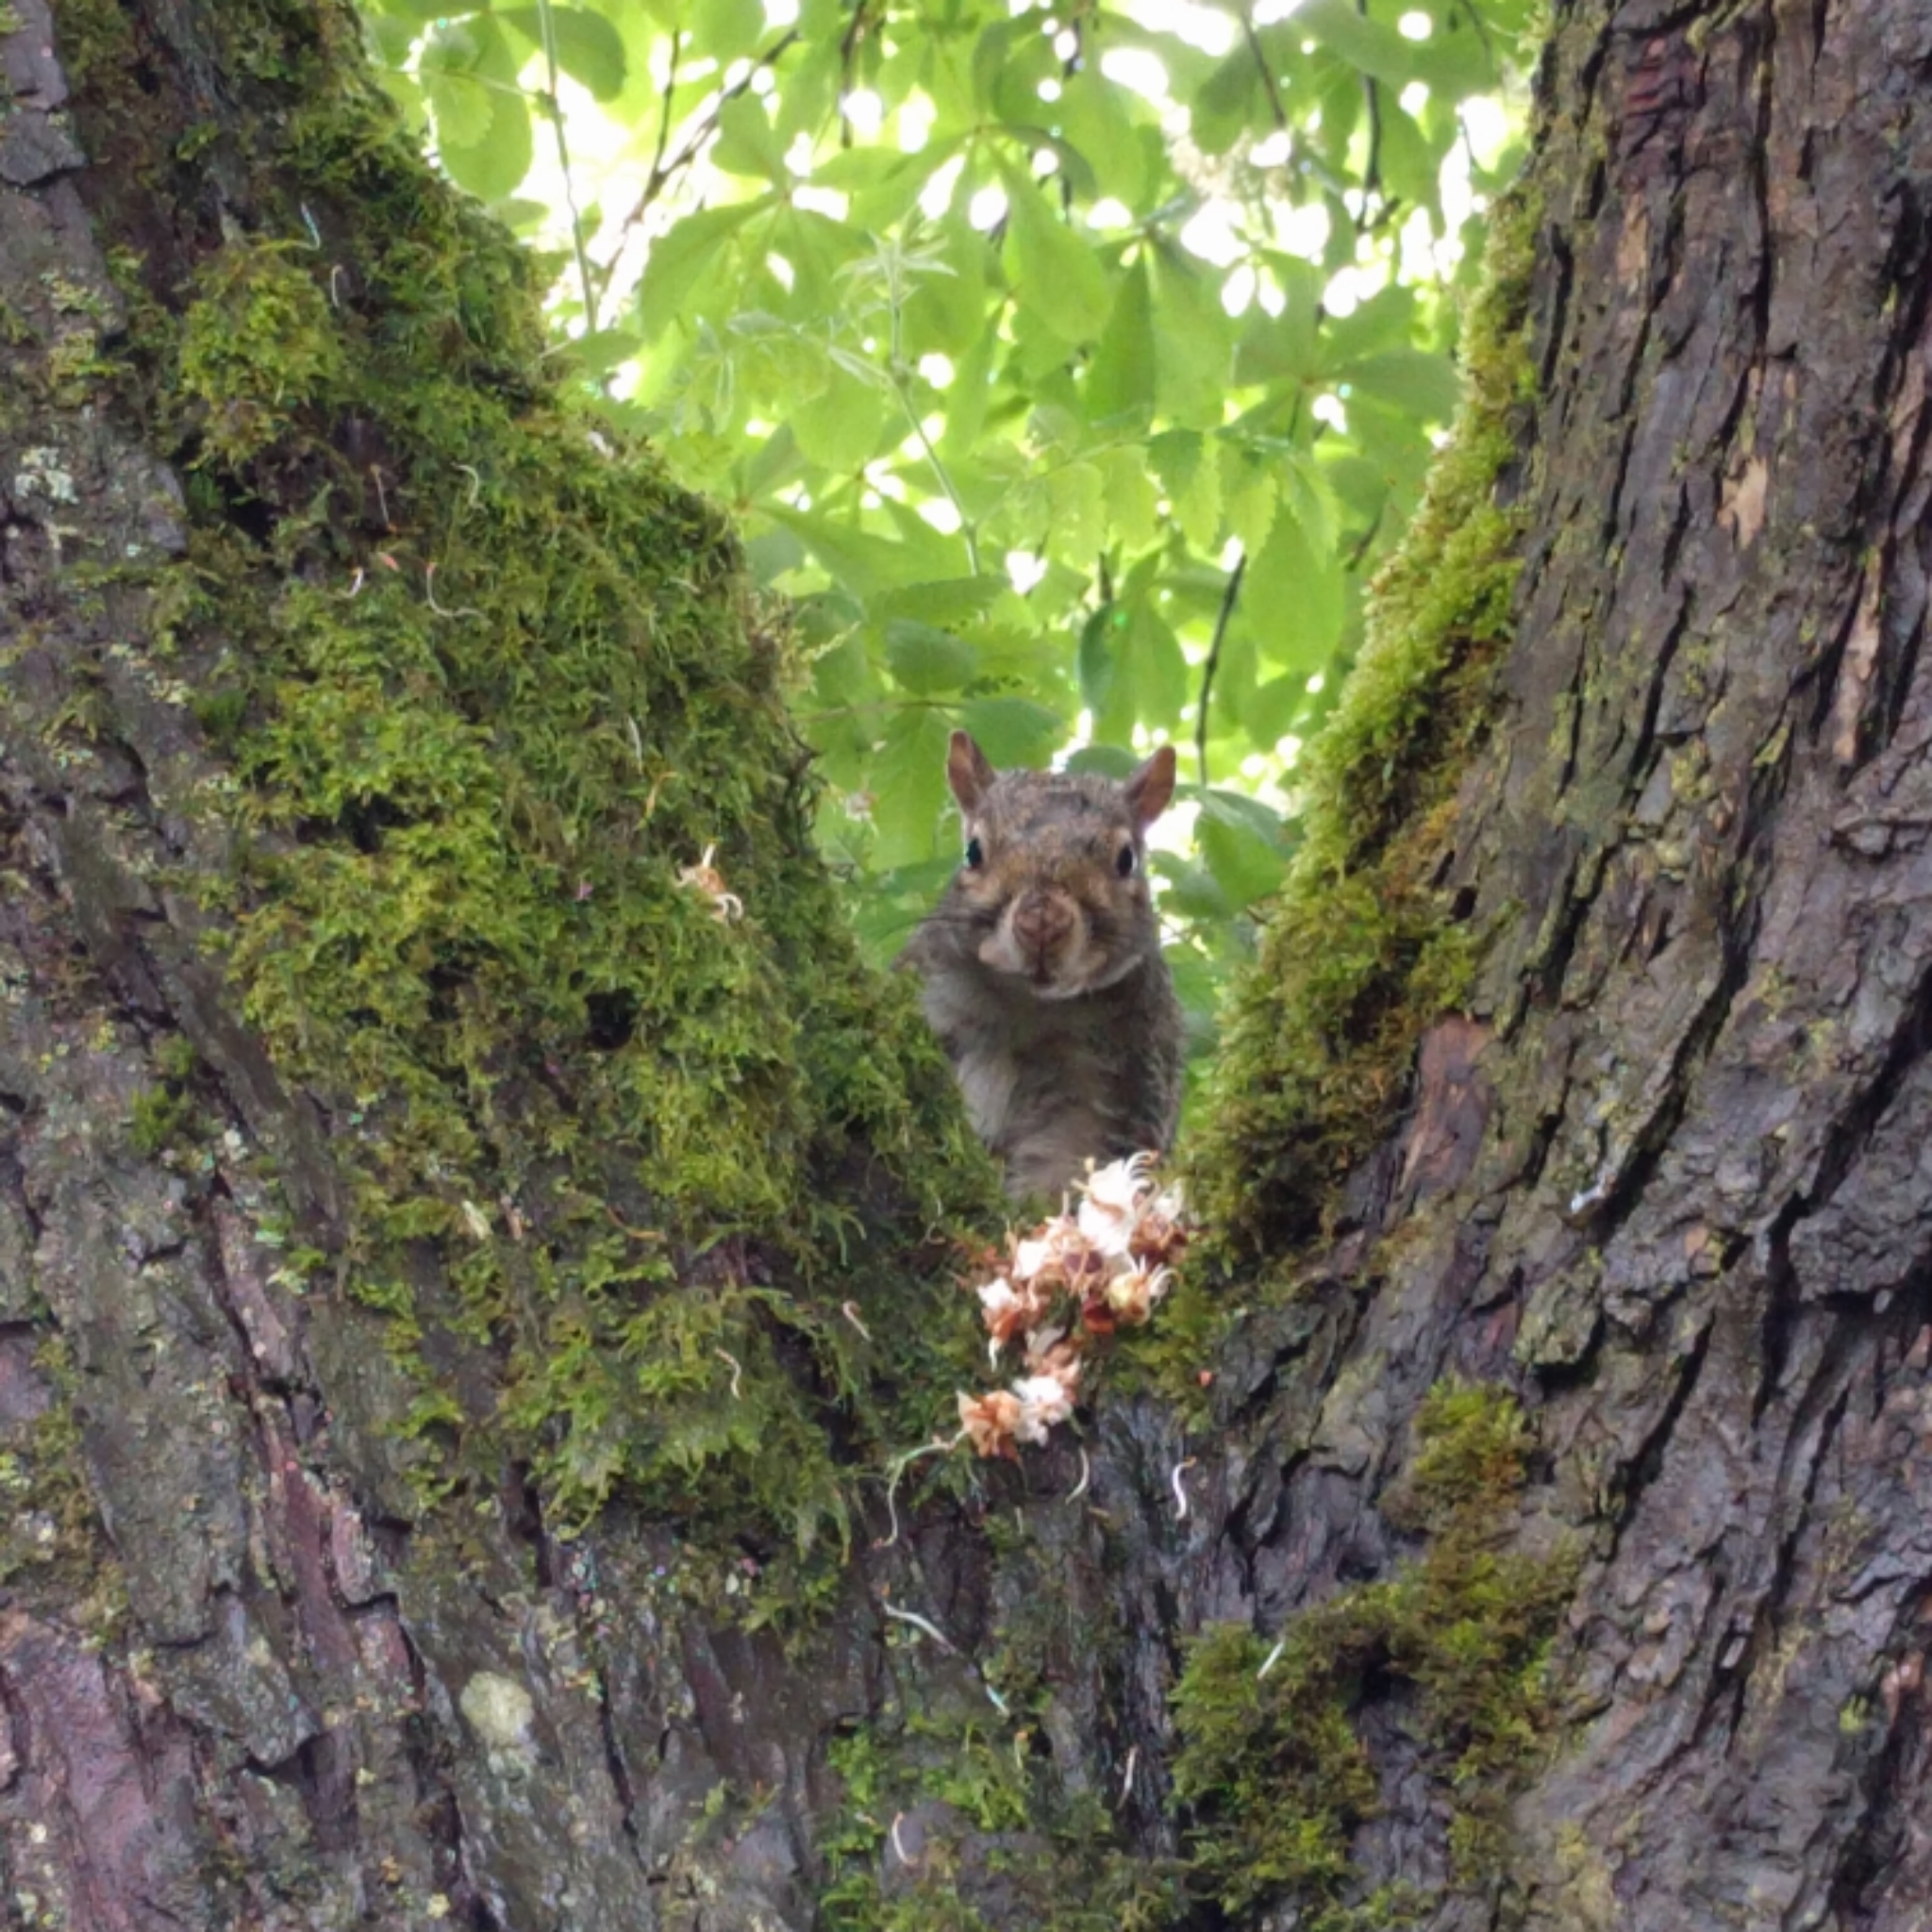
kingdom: Animalia
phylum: Chordata
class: Mammalia
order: Rodentia
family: Sciuridae
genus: Sciurus
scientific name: Sciurus carolinensis
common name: Eastern gray squirrel
